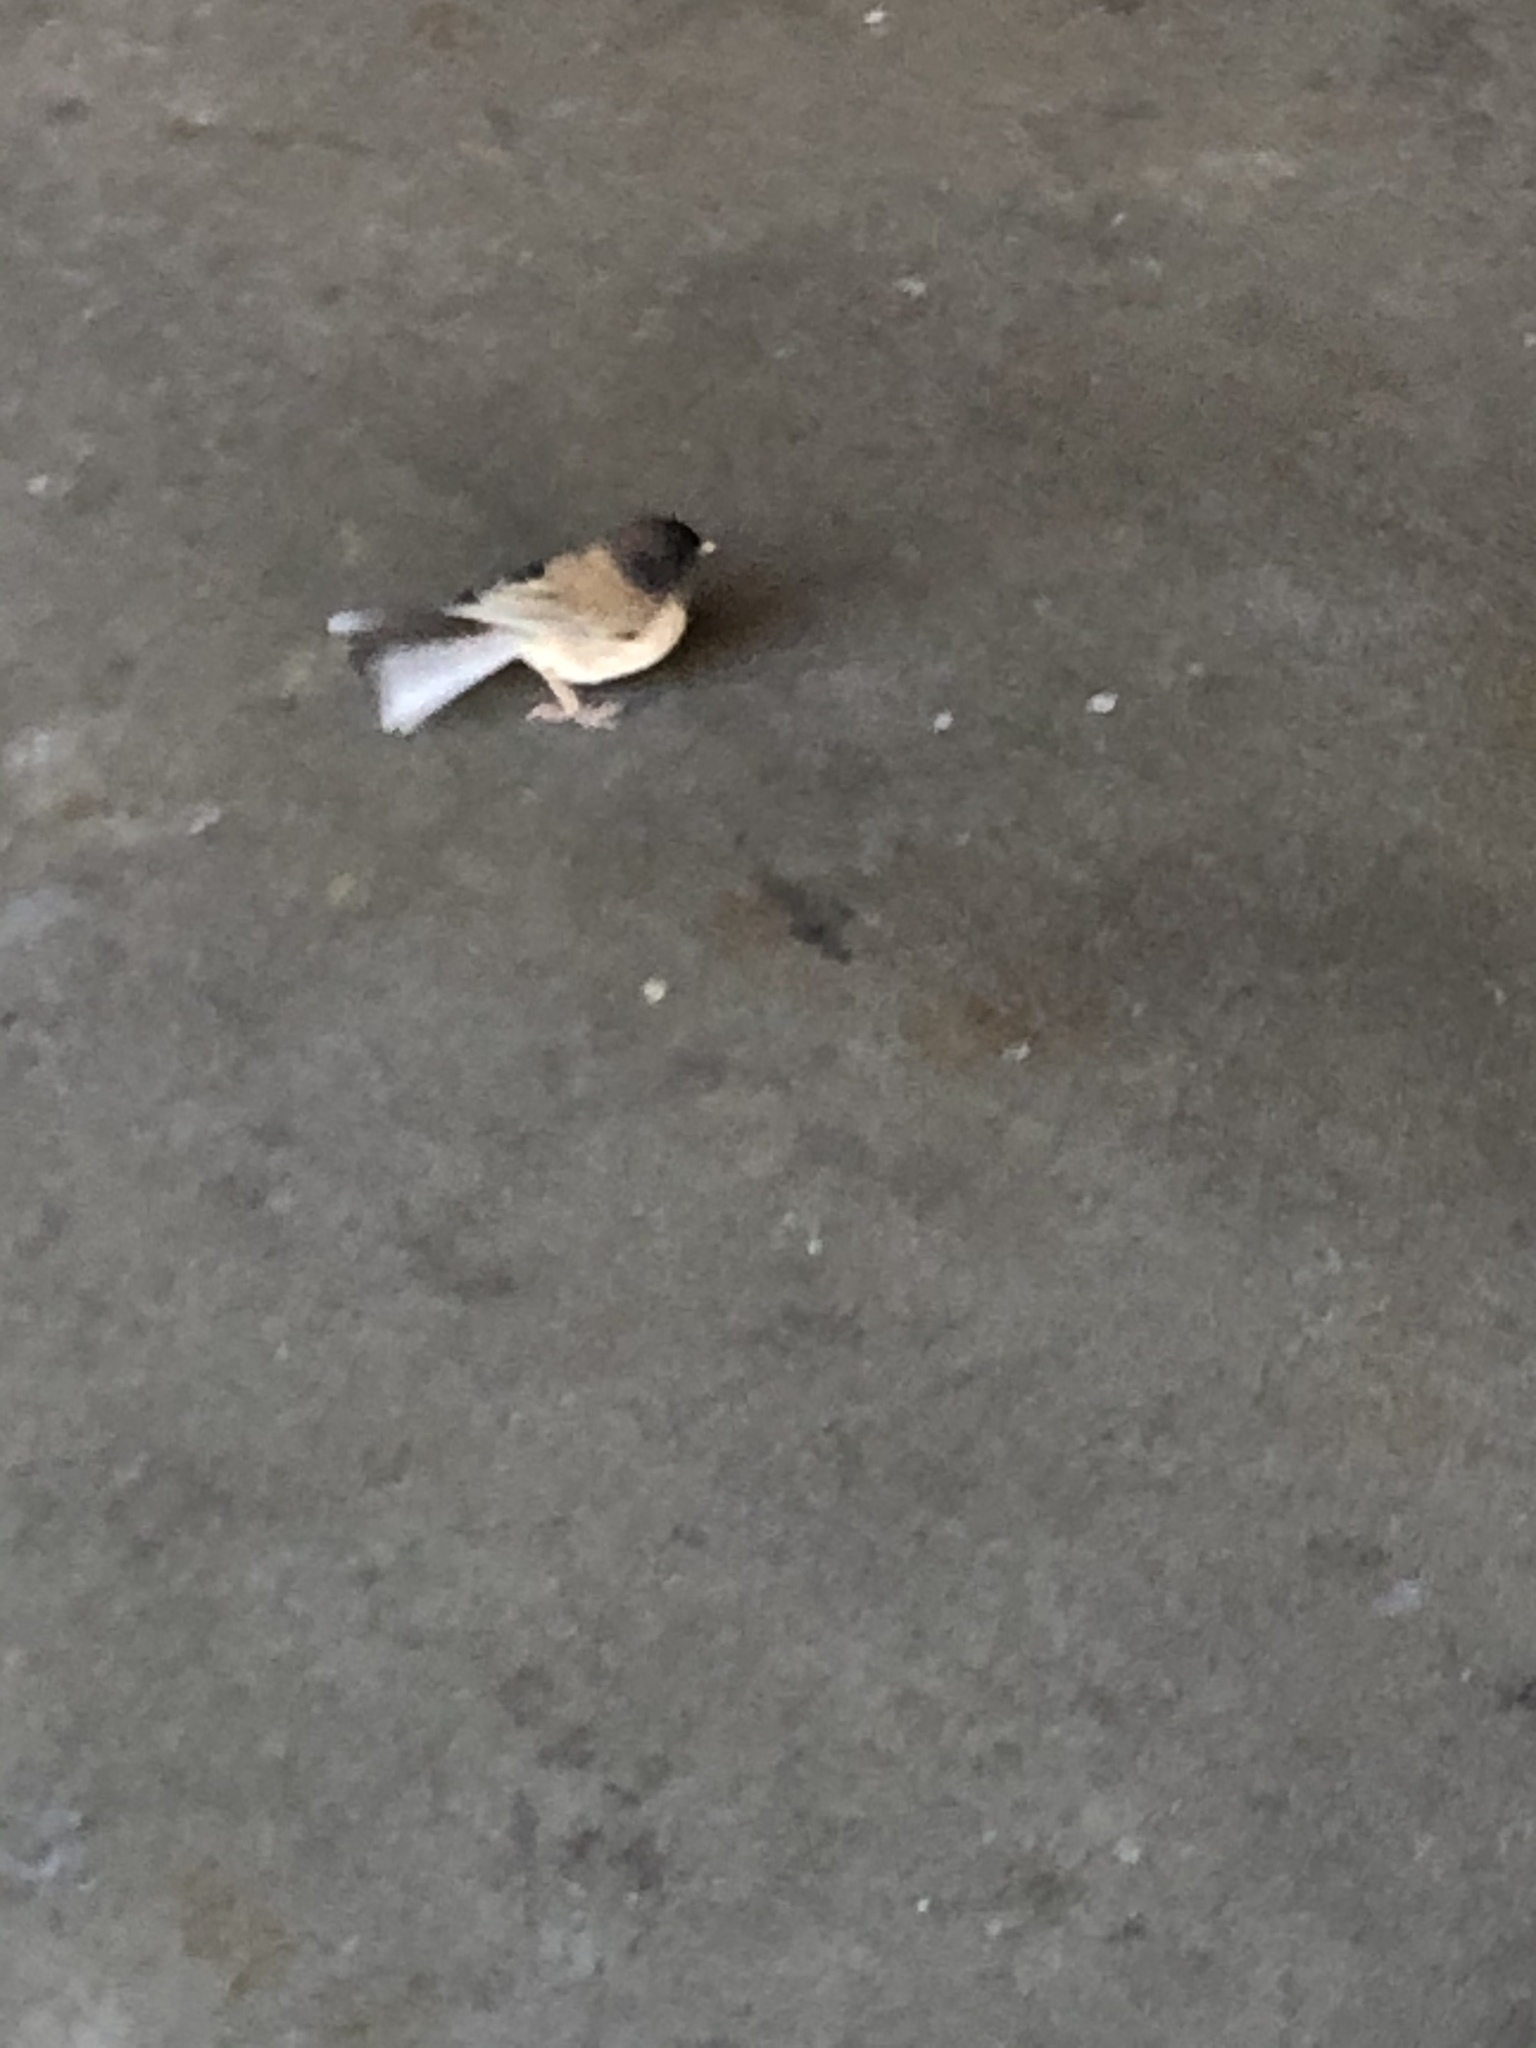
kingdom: Animalia
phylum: Chordata
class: Aves
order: Passeriformes
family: Passerellidae
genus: Junco
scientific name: Junco hyemalis
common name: Dark-eyed junco
